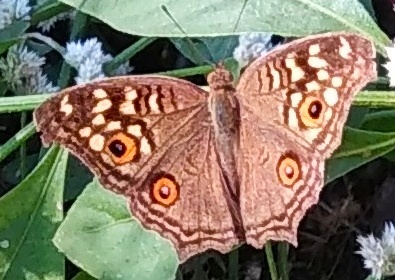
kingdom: Animalia
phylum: Arthropoda
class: Insecta
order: Lepidoptera
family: Nymphalidae
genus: Junonia
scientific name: Junonia lemonias
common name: Lemon pansy
